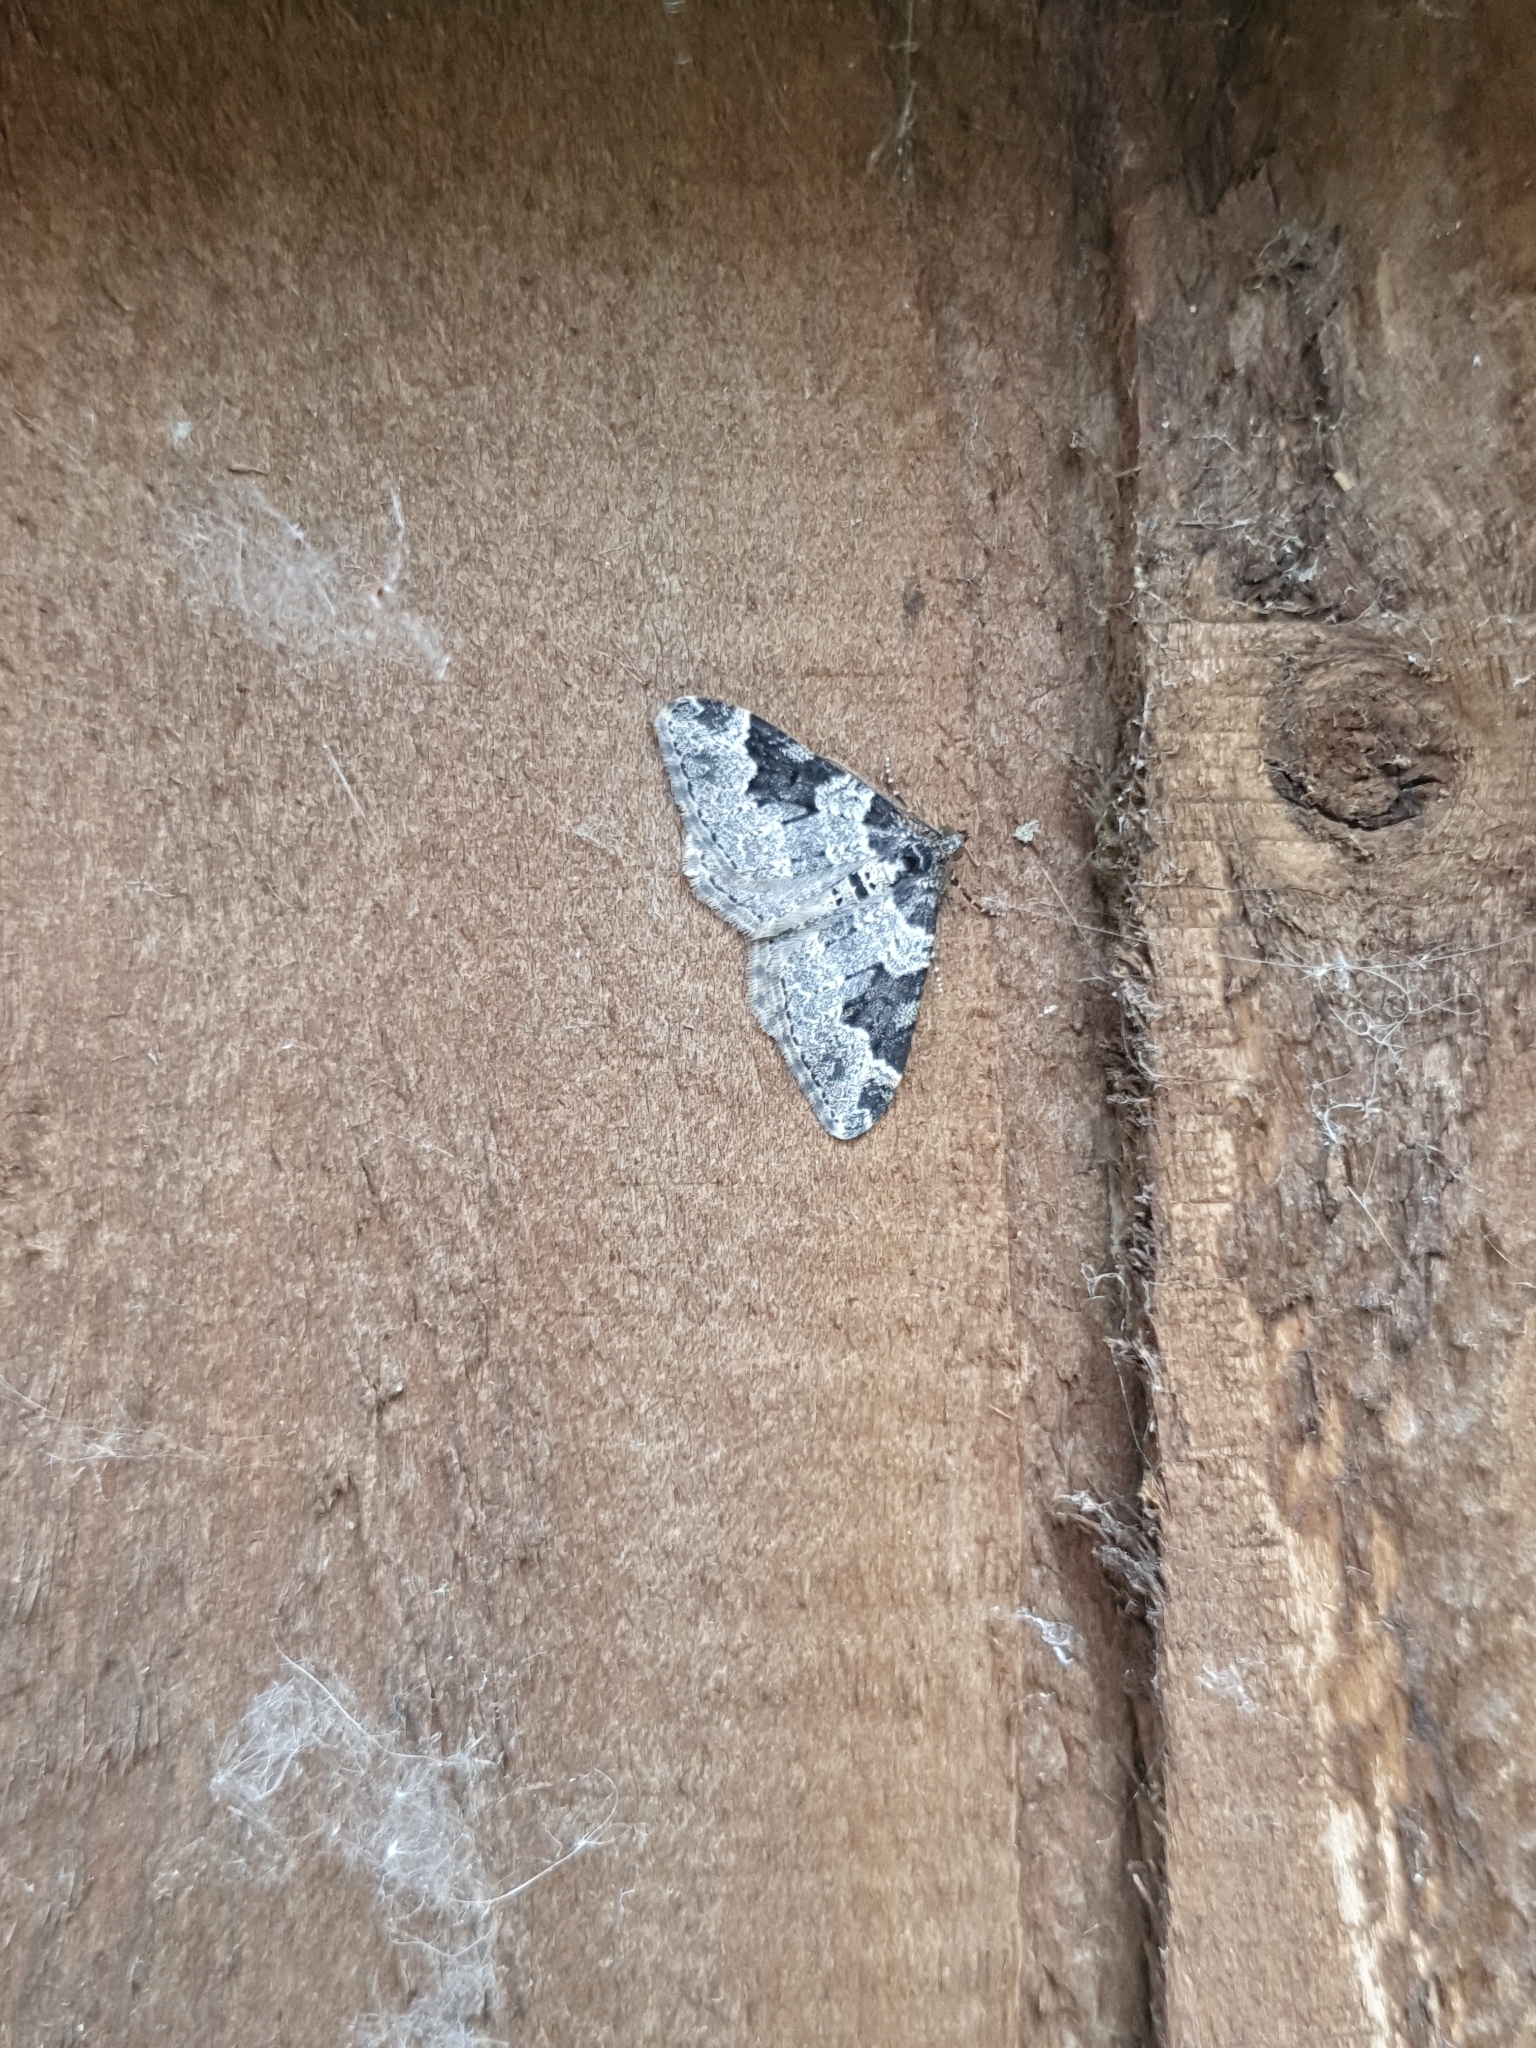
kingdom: Animalia
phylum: Arthropoda
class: Insecta
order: Lepidoptera
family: Geometridae
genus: Xanthorhoe
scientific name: Xanthorhoe fluctuata
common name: Garden carpet
